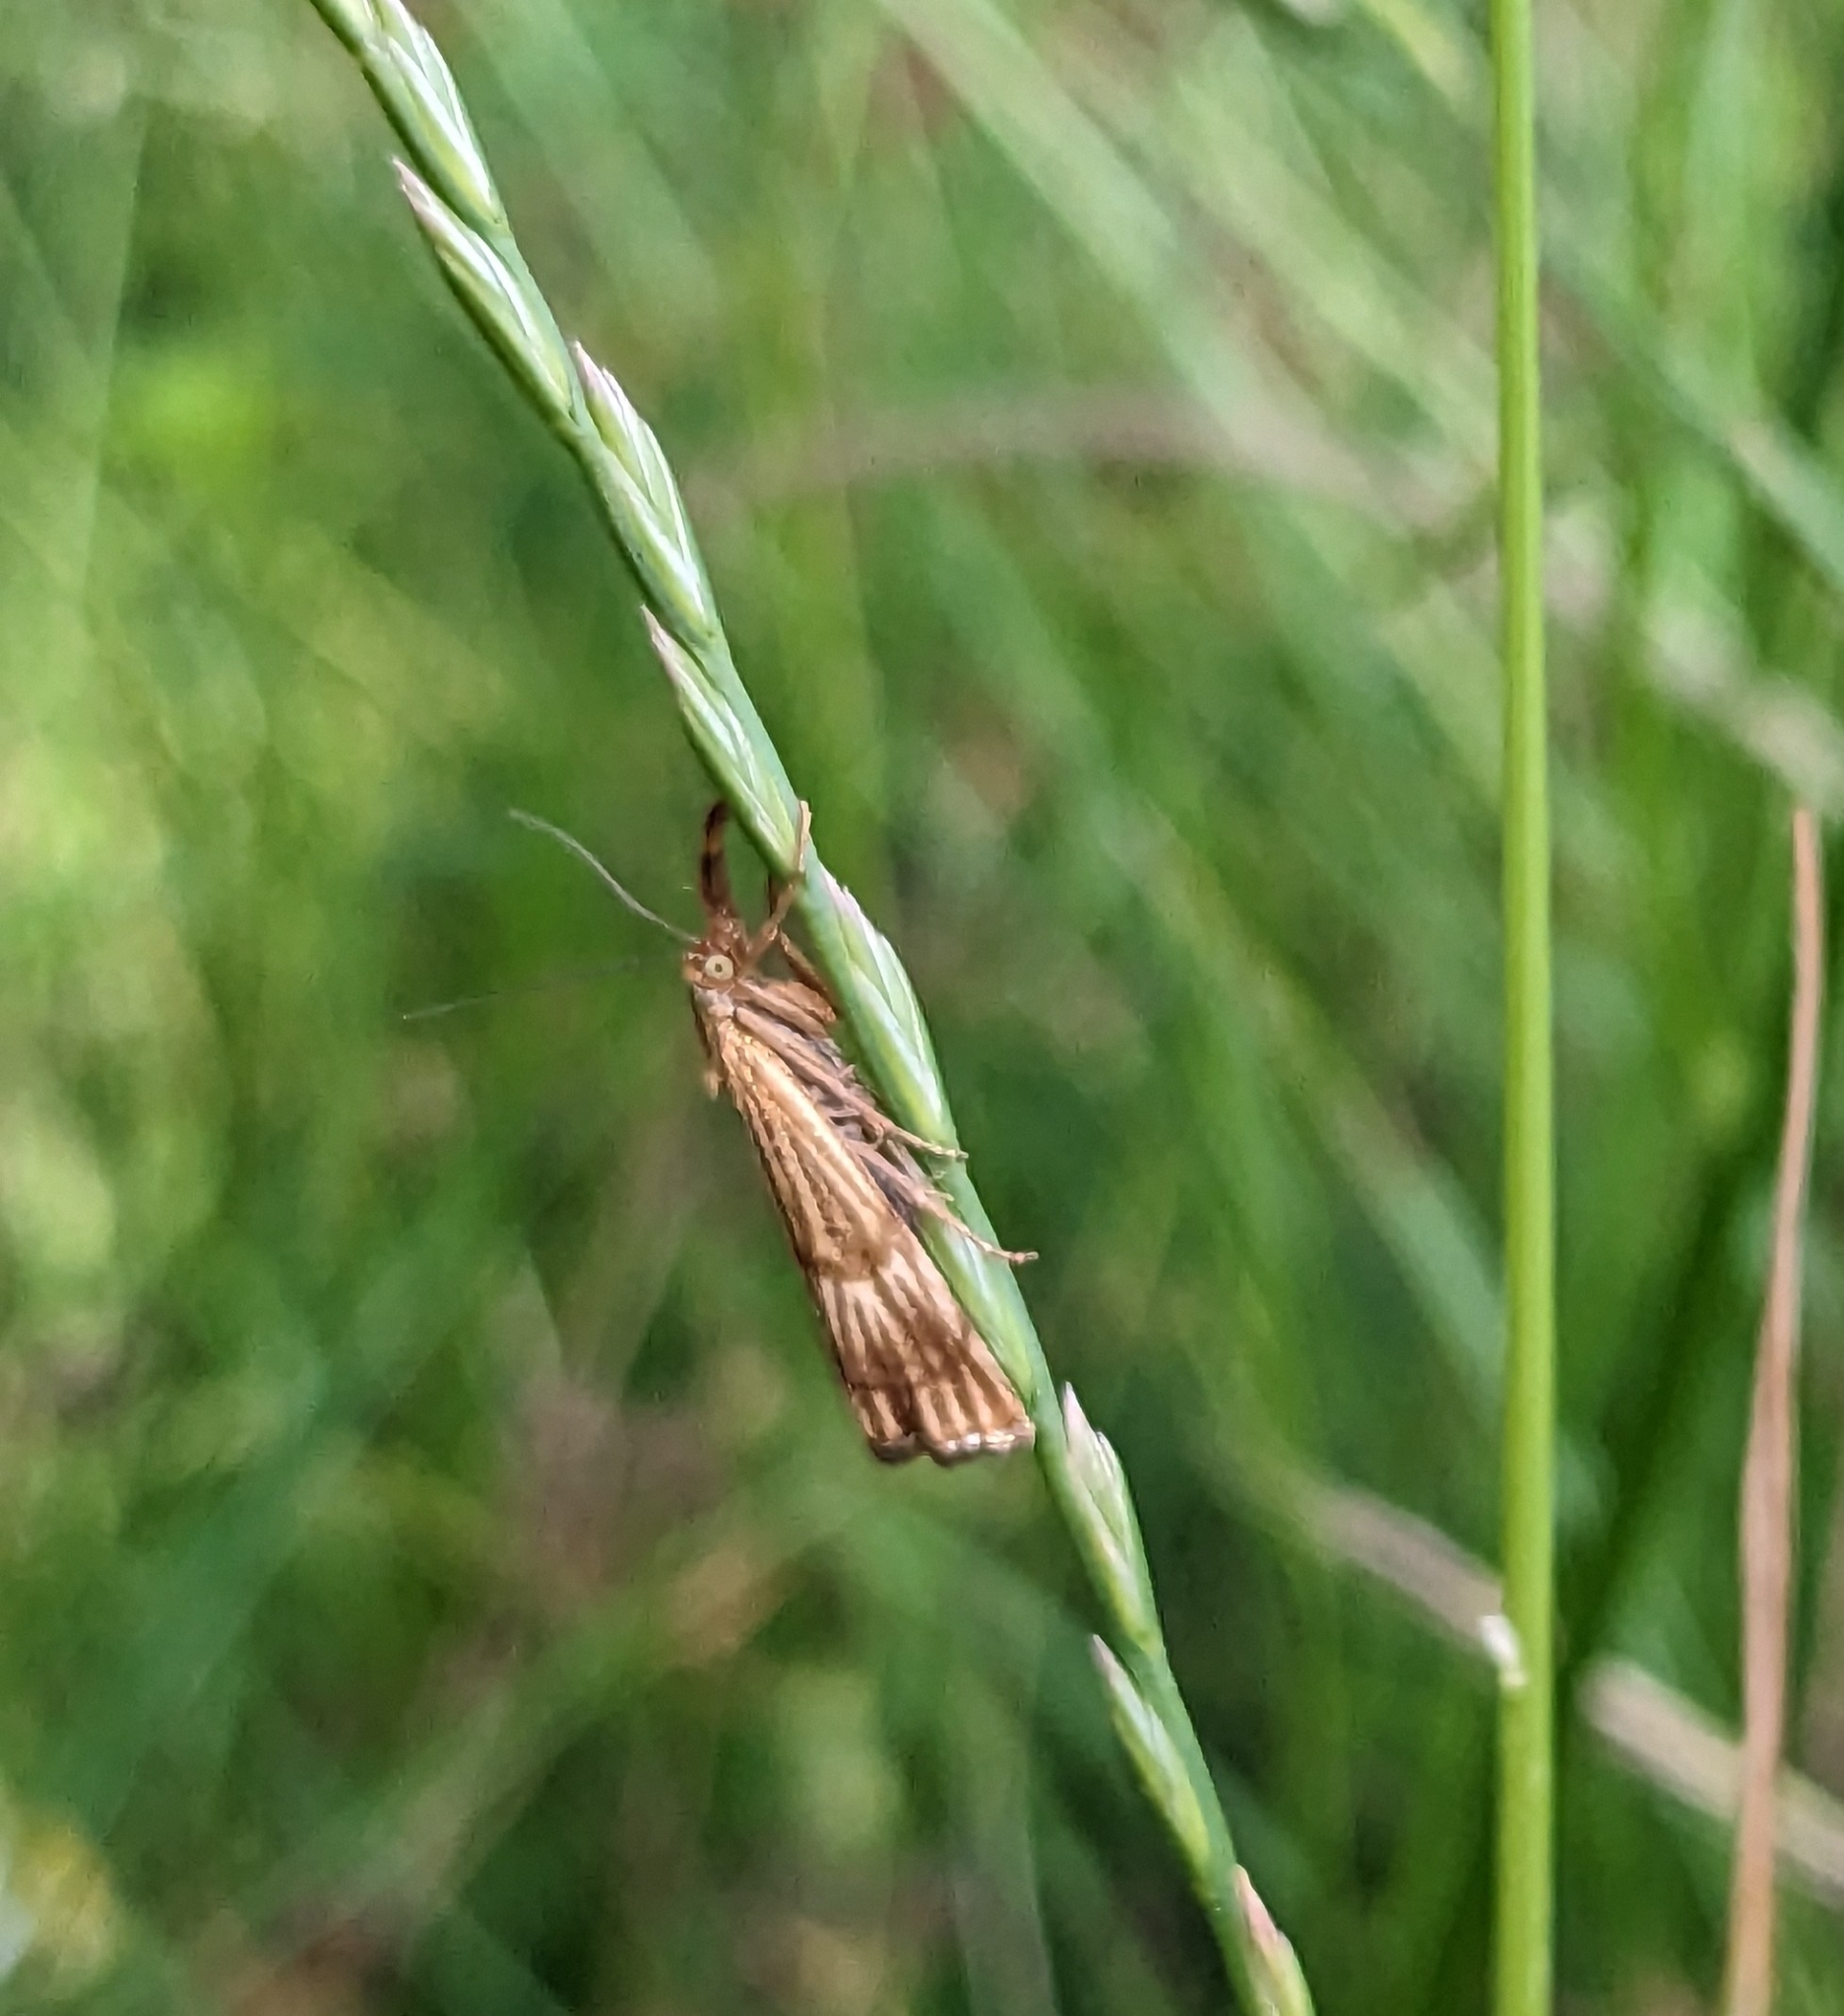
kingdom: Animalia
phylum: Arthropoda
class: Insecta
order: Lepidoptera
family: Crambidae
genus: Chrysocrambus
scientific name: Chrysocrambus linetella
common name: Orange-bar grass-veneer
